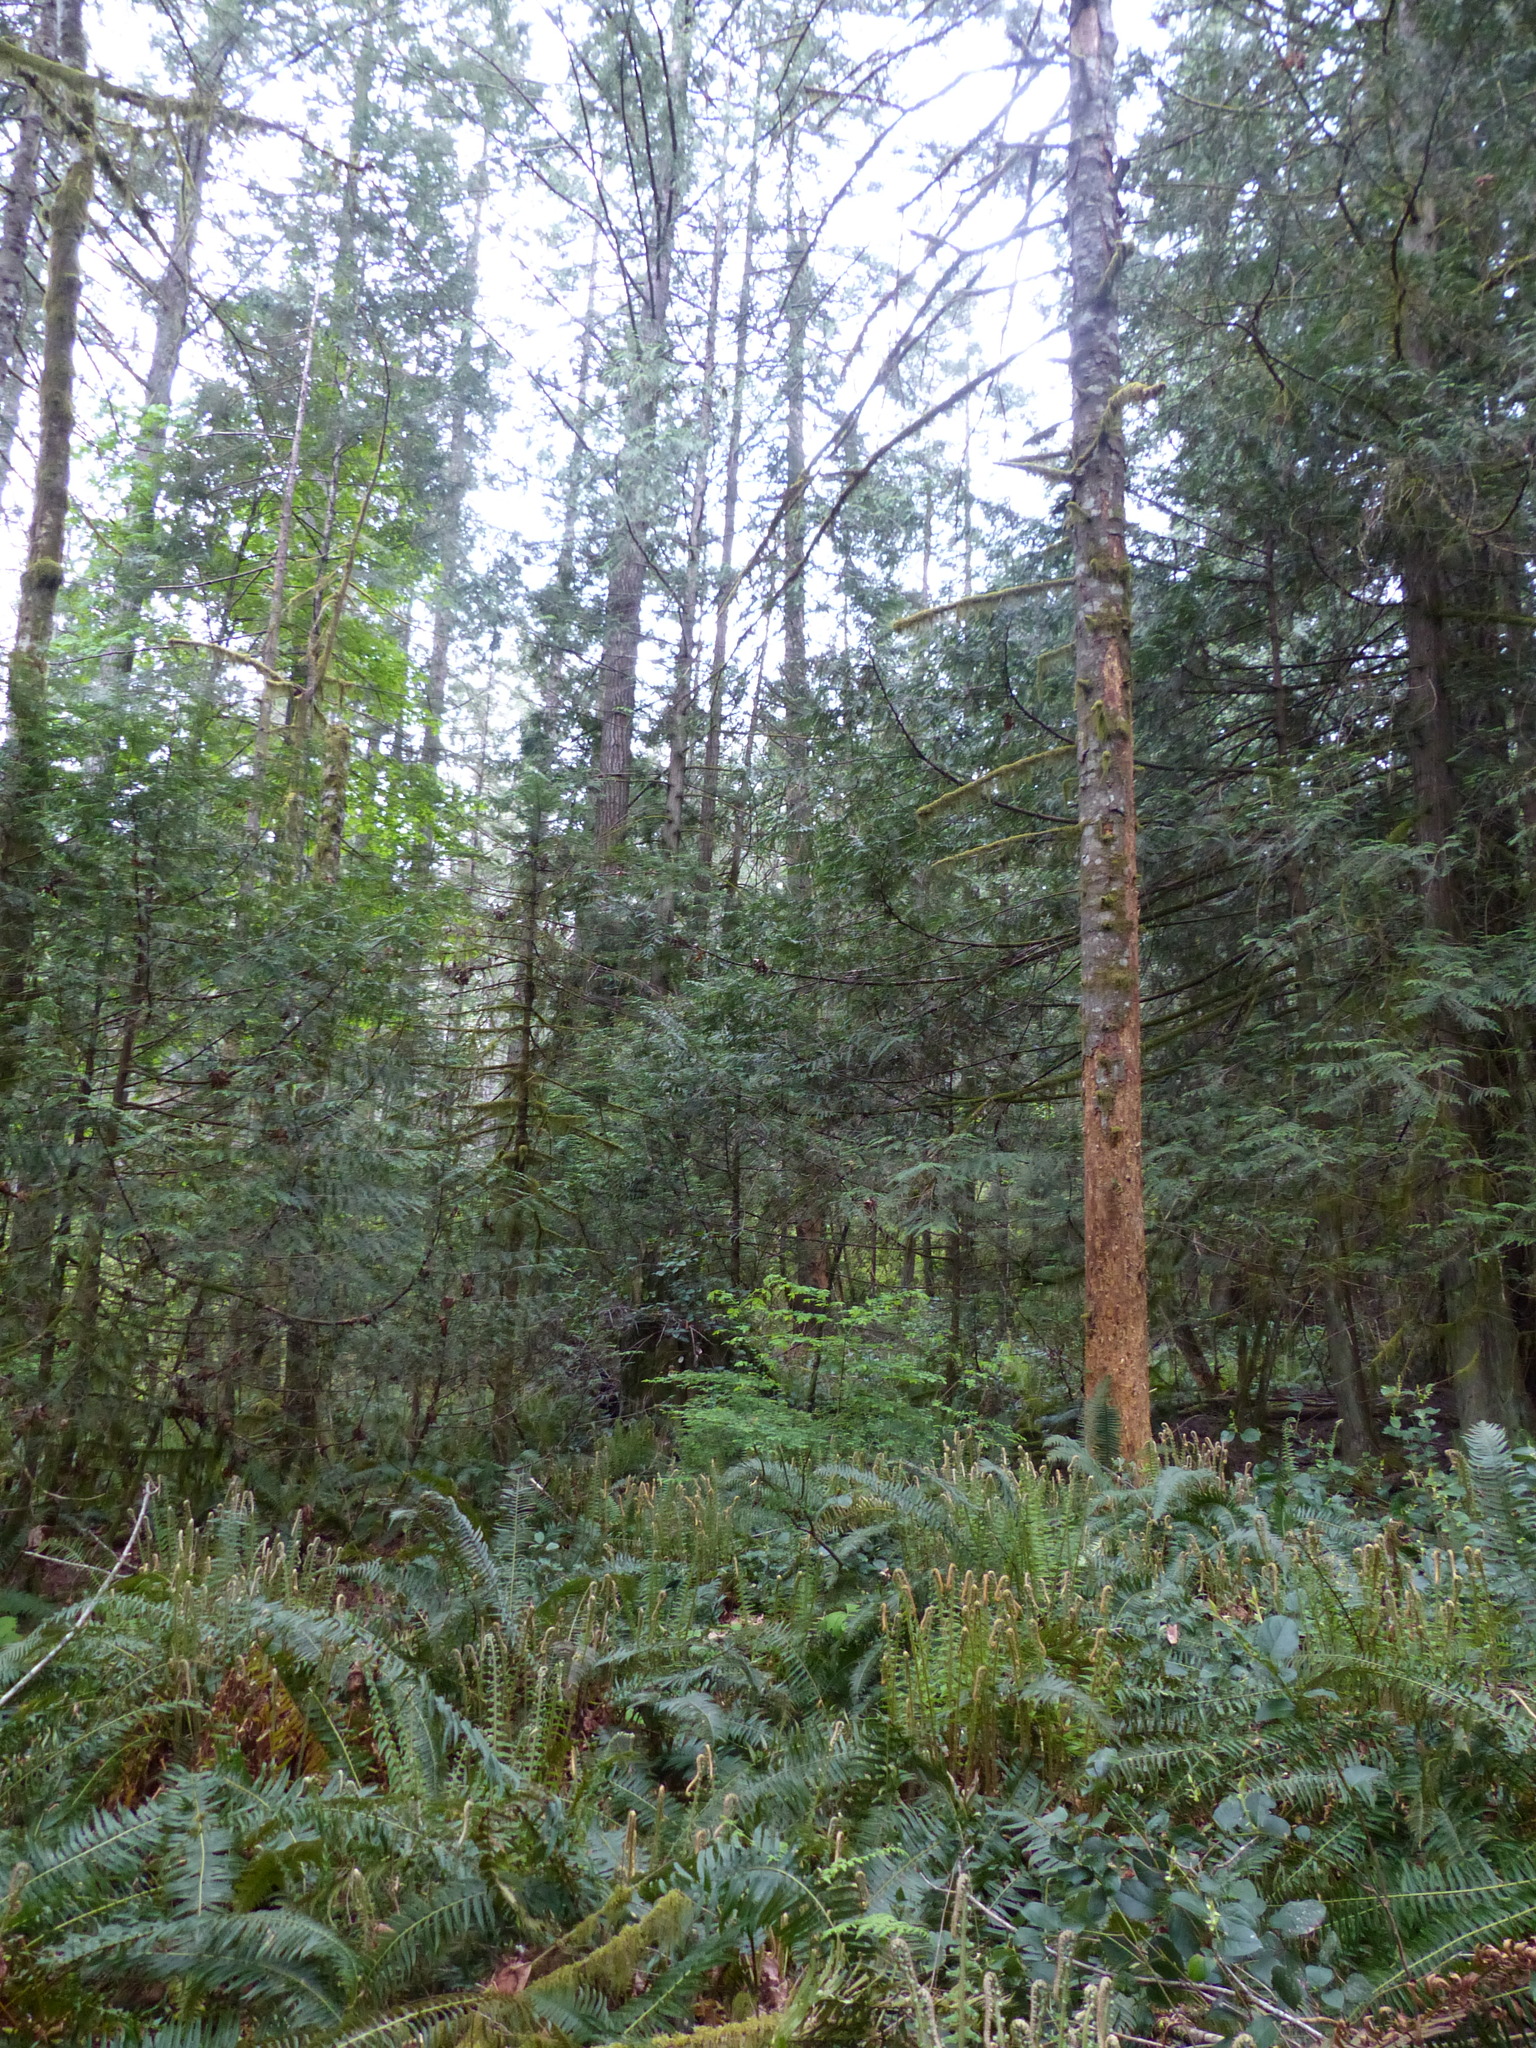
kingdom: Plantae
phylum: Tracheophyta
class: Polypodiopsida
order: Polypodiales
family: Dryopteridaceae
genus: Polystichum
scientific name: Polystichum munitum
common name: Western sword-fern
